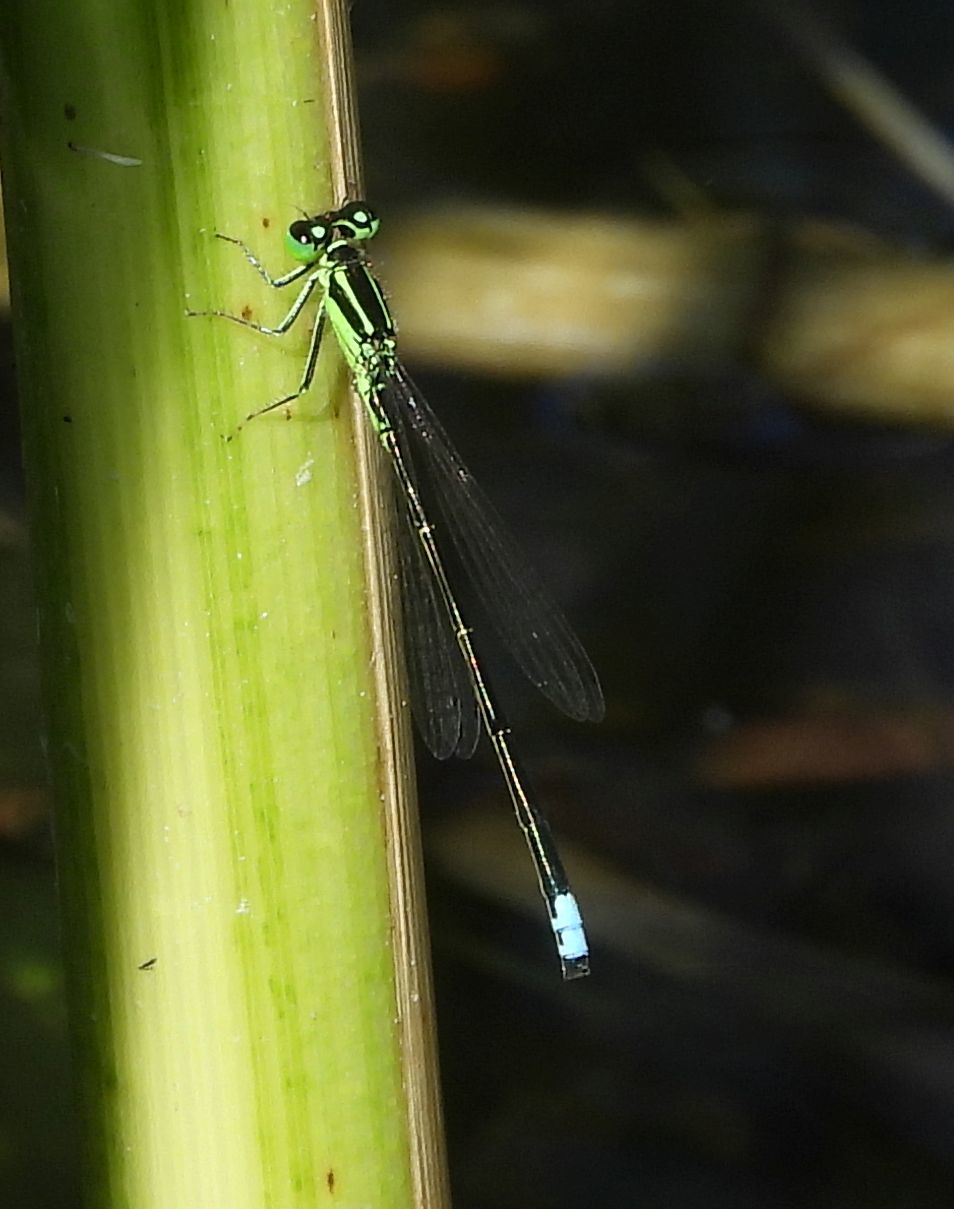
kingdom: Animalia
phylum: Arthropoda
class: Insecta
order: Odonata
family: Coenagrionidae
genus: Ischnura
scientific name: Ischnura verticalis
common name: Eastern forktail
